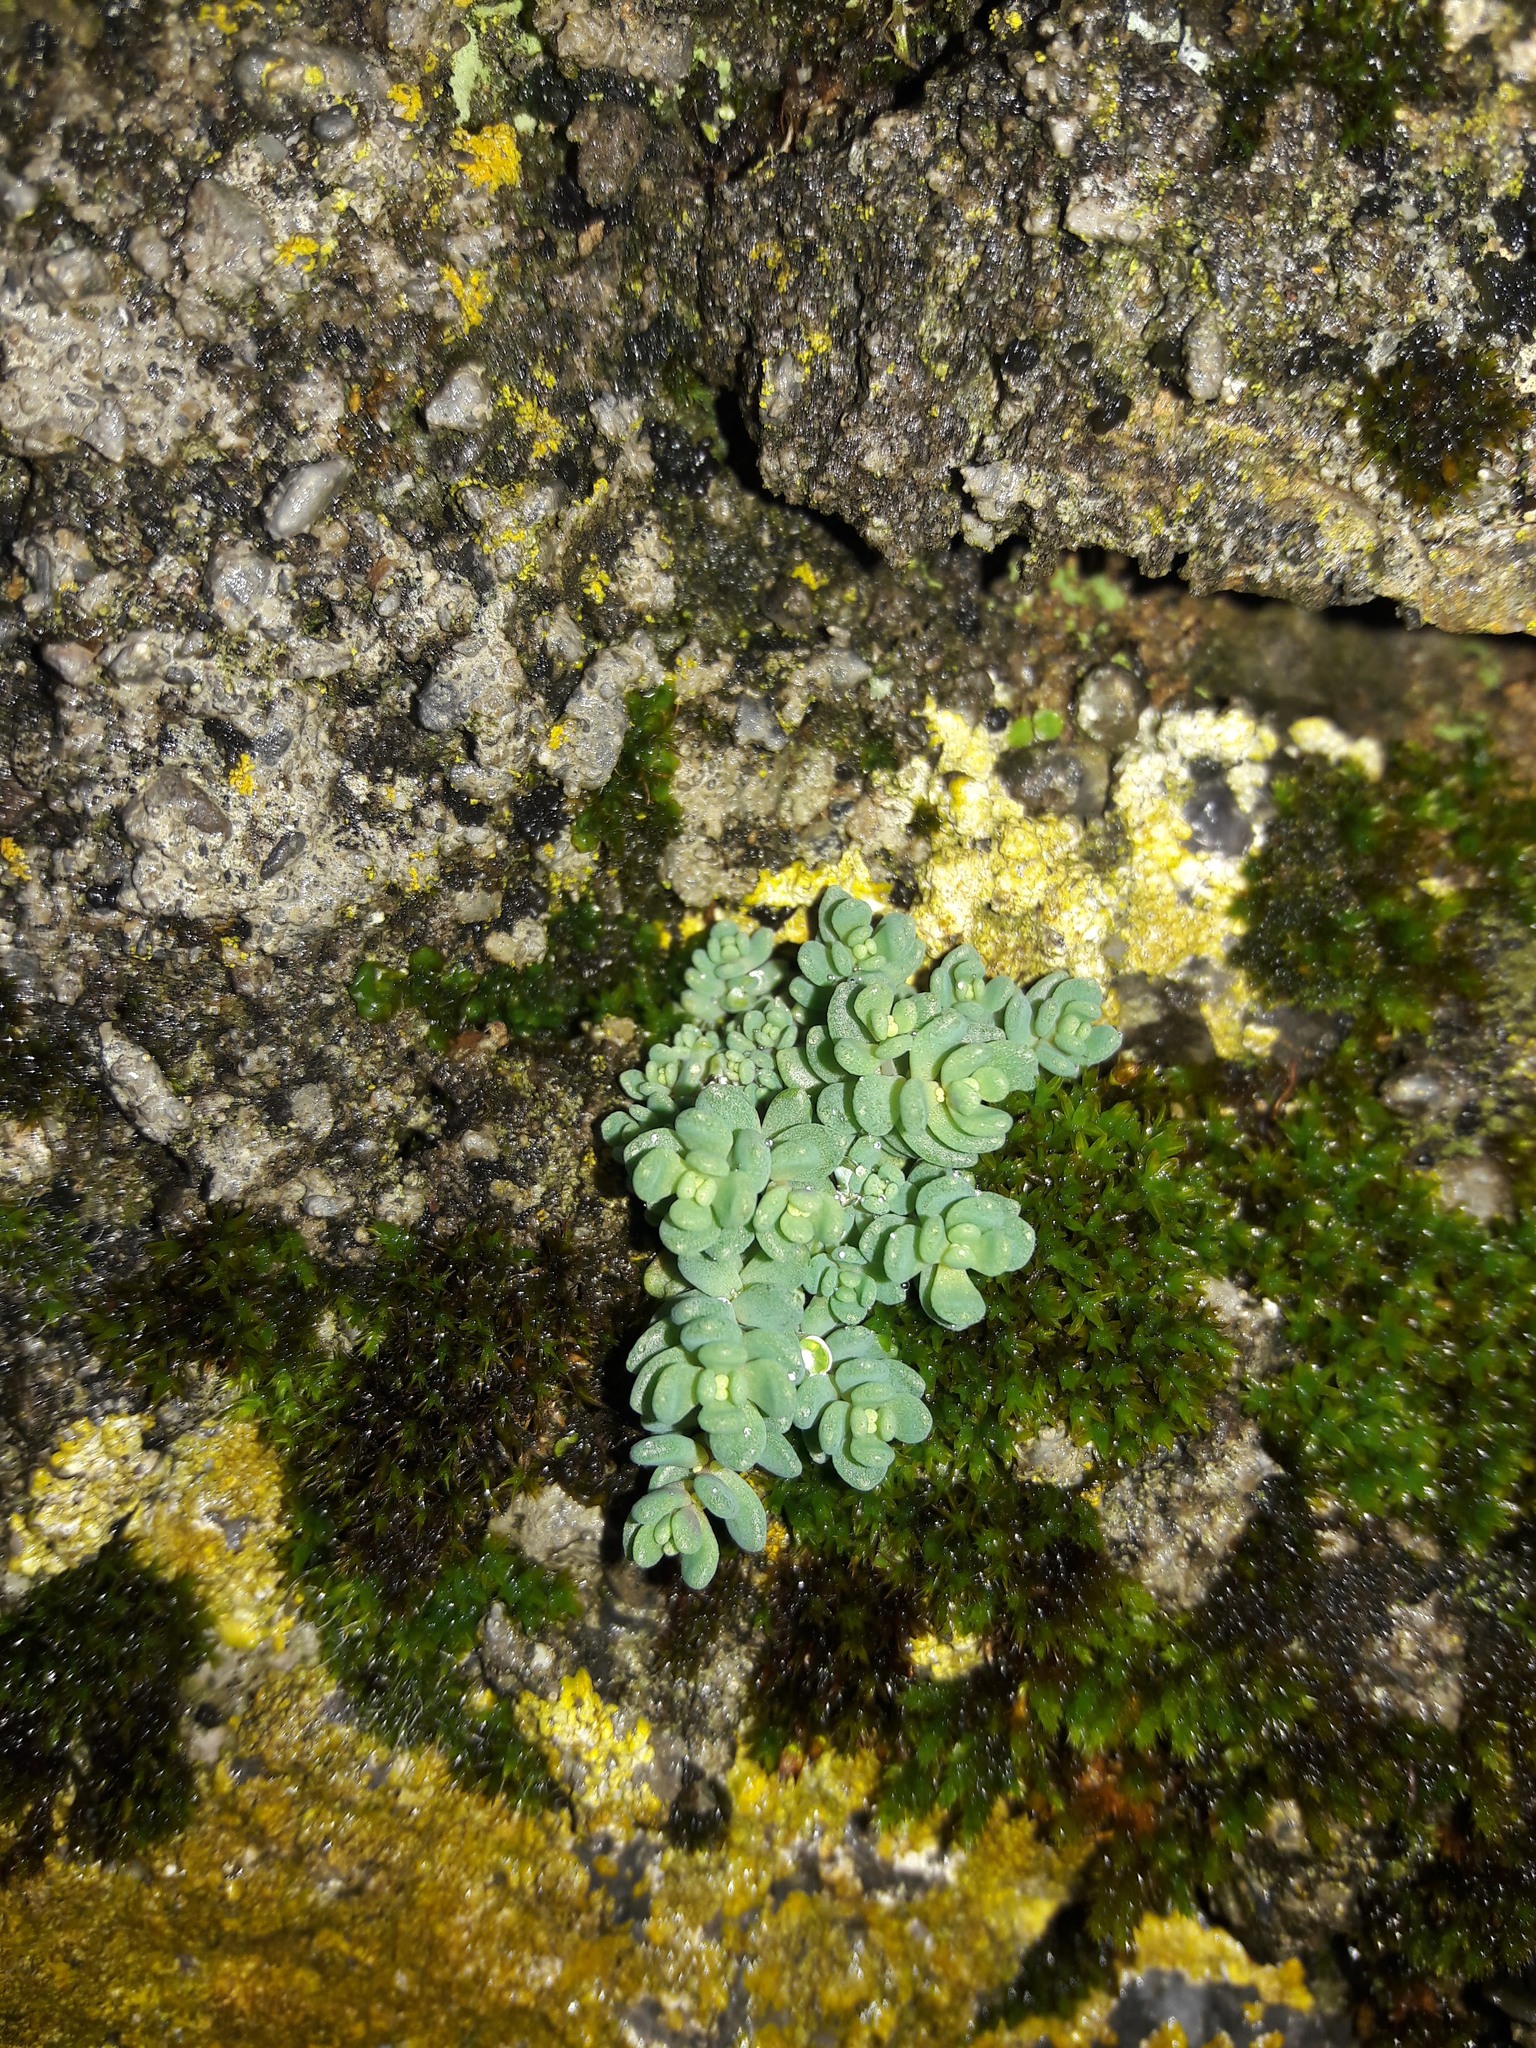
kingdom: Plantae
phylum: Tracheophyta
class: Magnoliopsida
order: Saxifragales
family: Crassulaceae
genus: Sedum
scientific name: Sedum dasyphyllum
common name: Thick-leaf stonecrop
